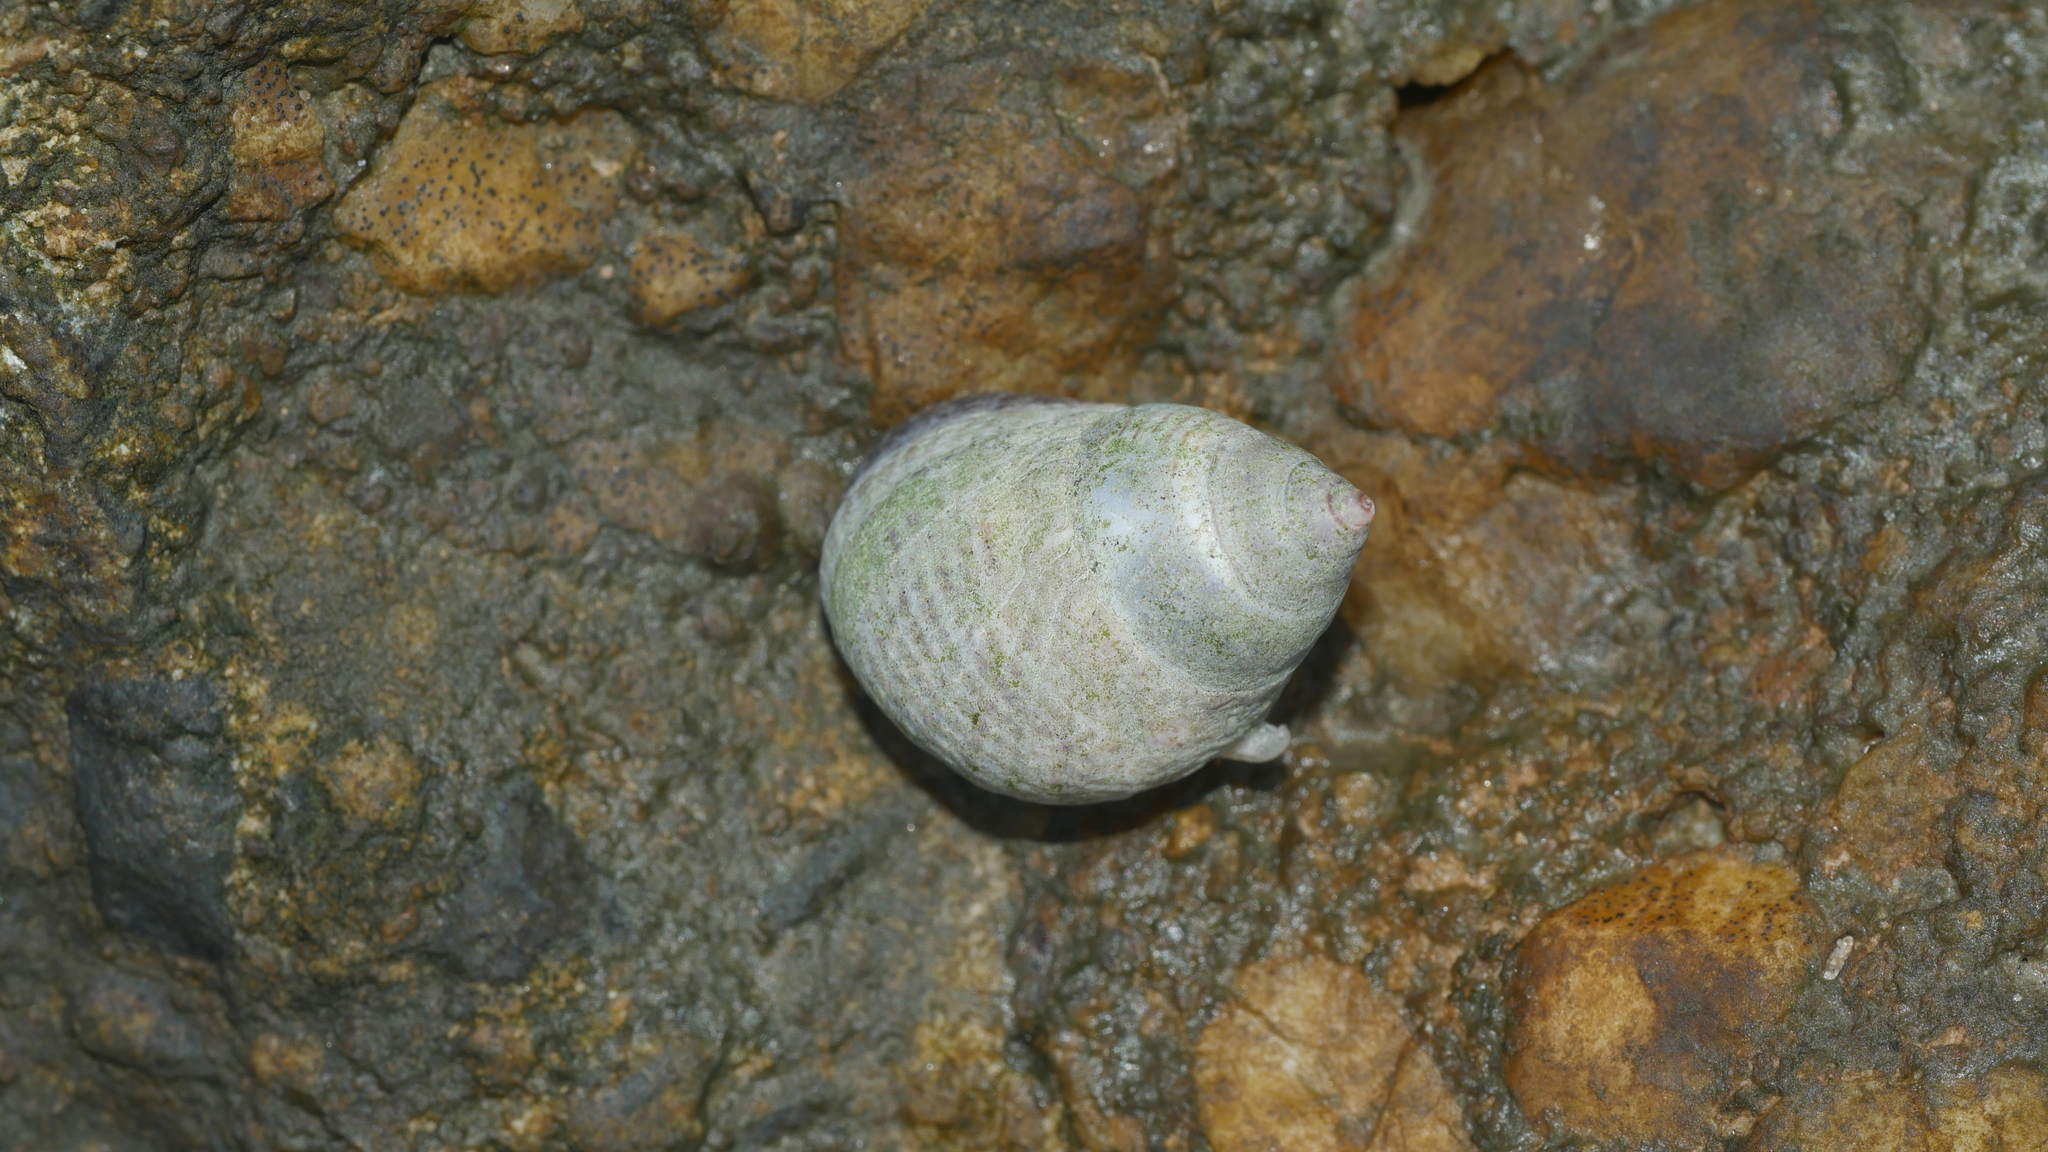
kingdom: Animalia
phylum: Mollusca
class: Gastropoda
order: Littorinimorpha
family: Littorinidae
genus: Littoraria
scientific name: Littoraria irrorata
